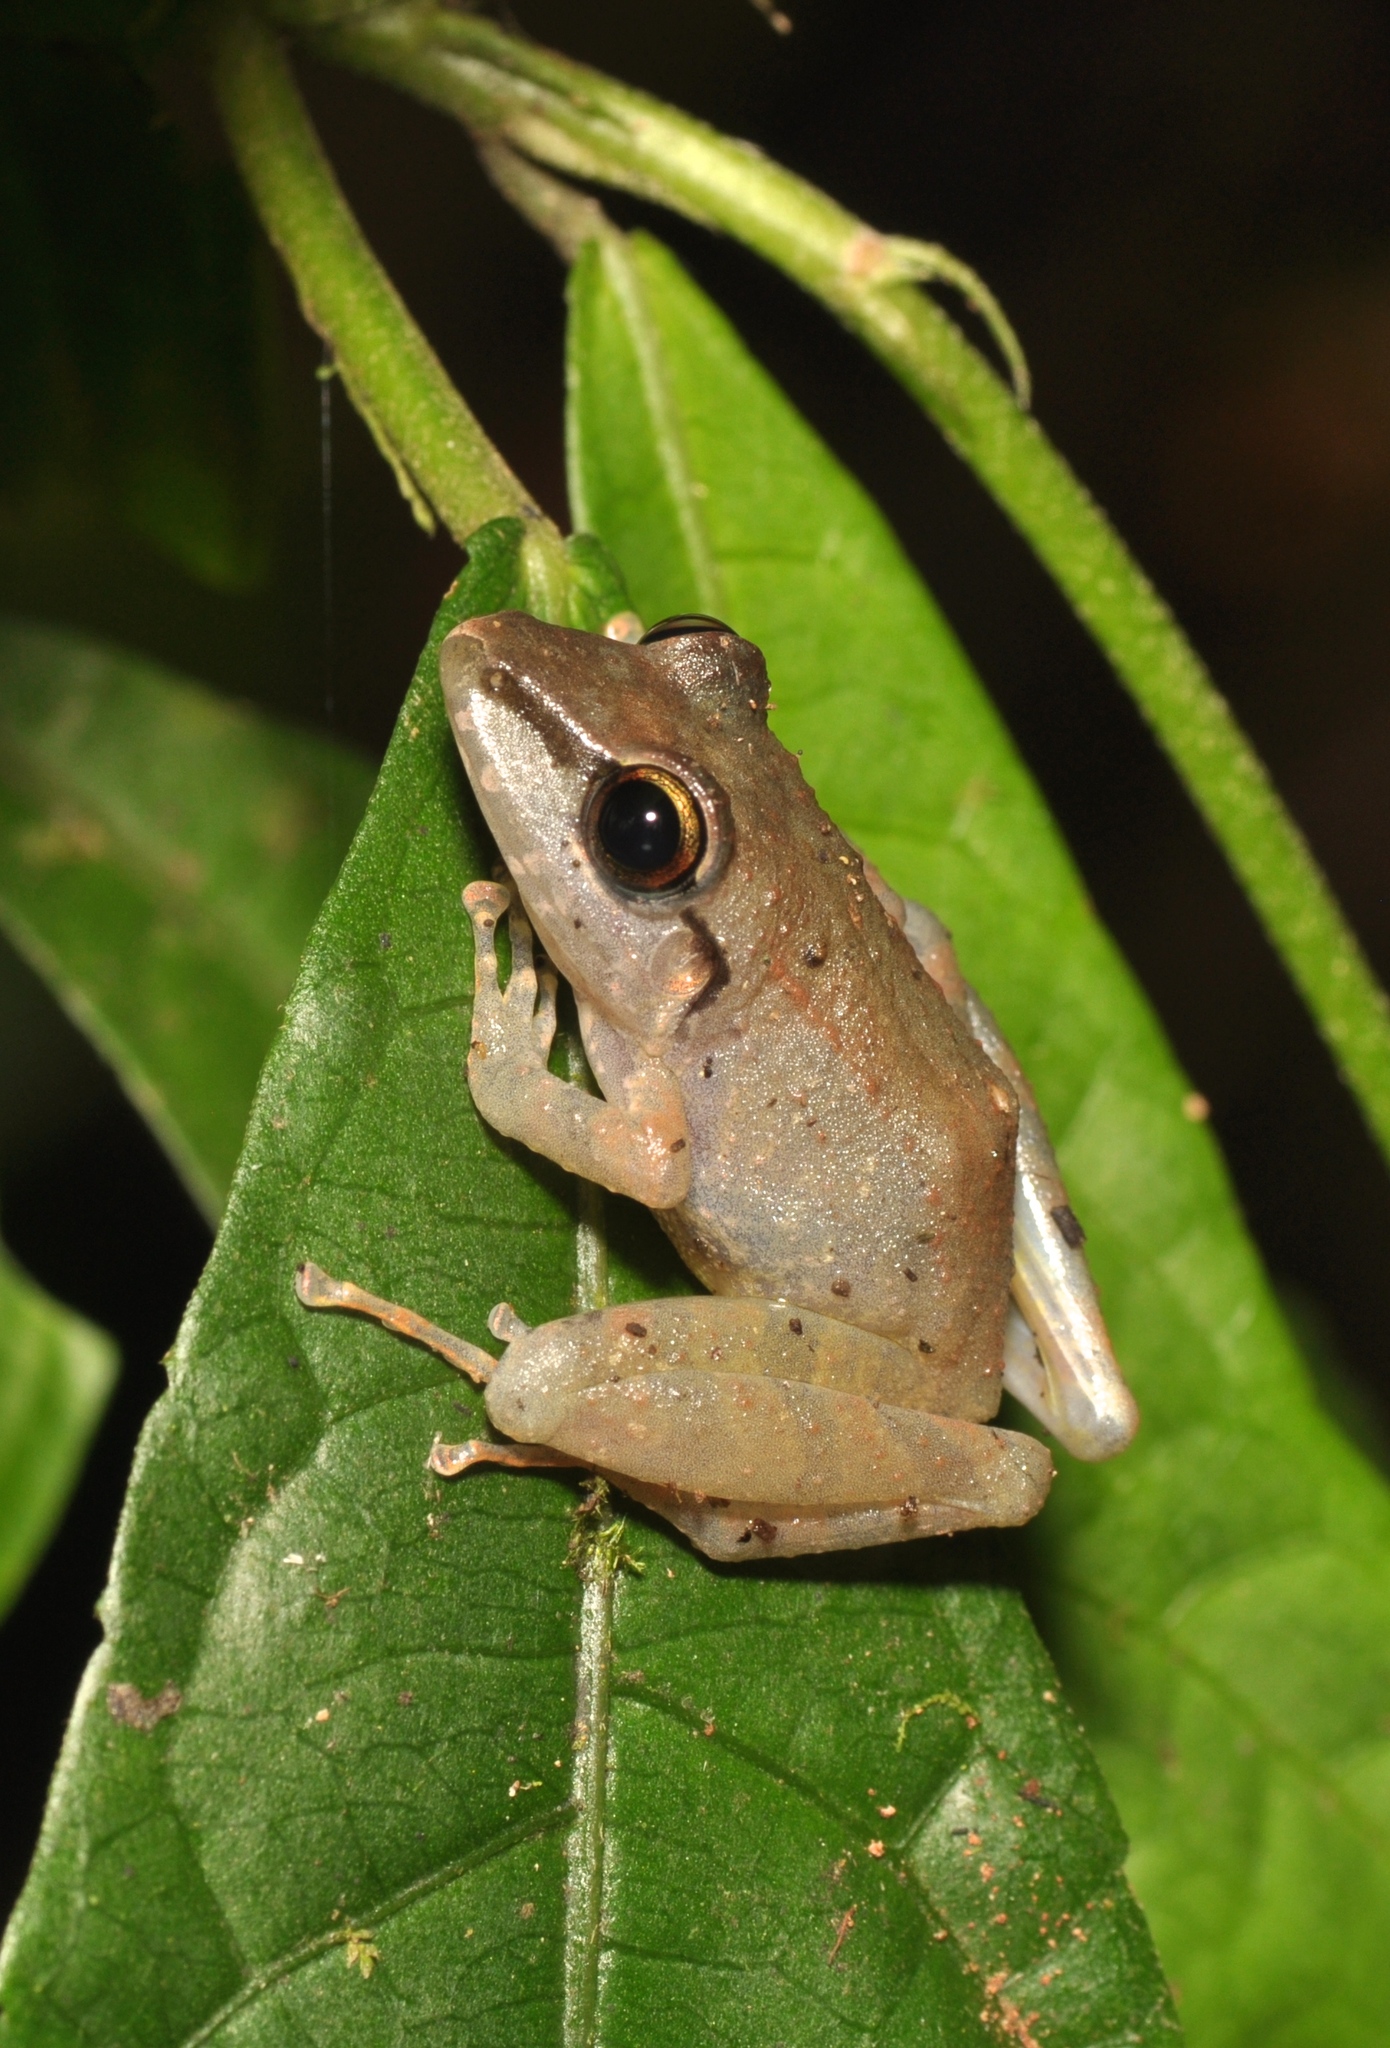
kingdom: Animalia
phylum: Chordata
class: Amphibia
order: Anura
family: Craugastoridae
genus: Pristimantis
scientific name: Pristimantis achatinus
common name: Cachabi robber frog
